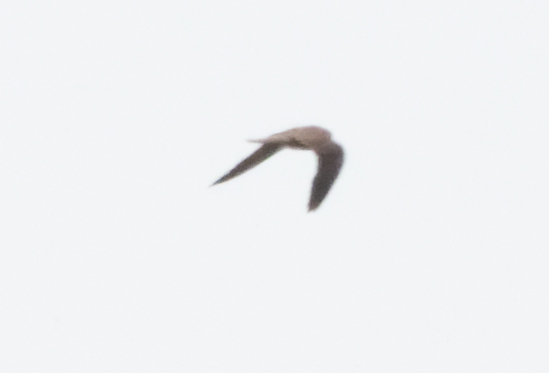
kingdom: Animalia
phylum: Chordata
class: Aves
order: Falconiformes
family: Falconidae
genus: Falco
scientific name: Falco tinnunculus
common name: Common kestrel
